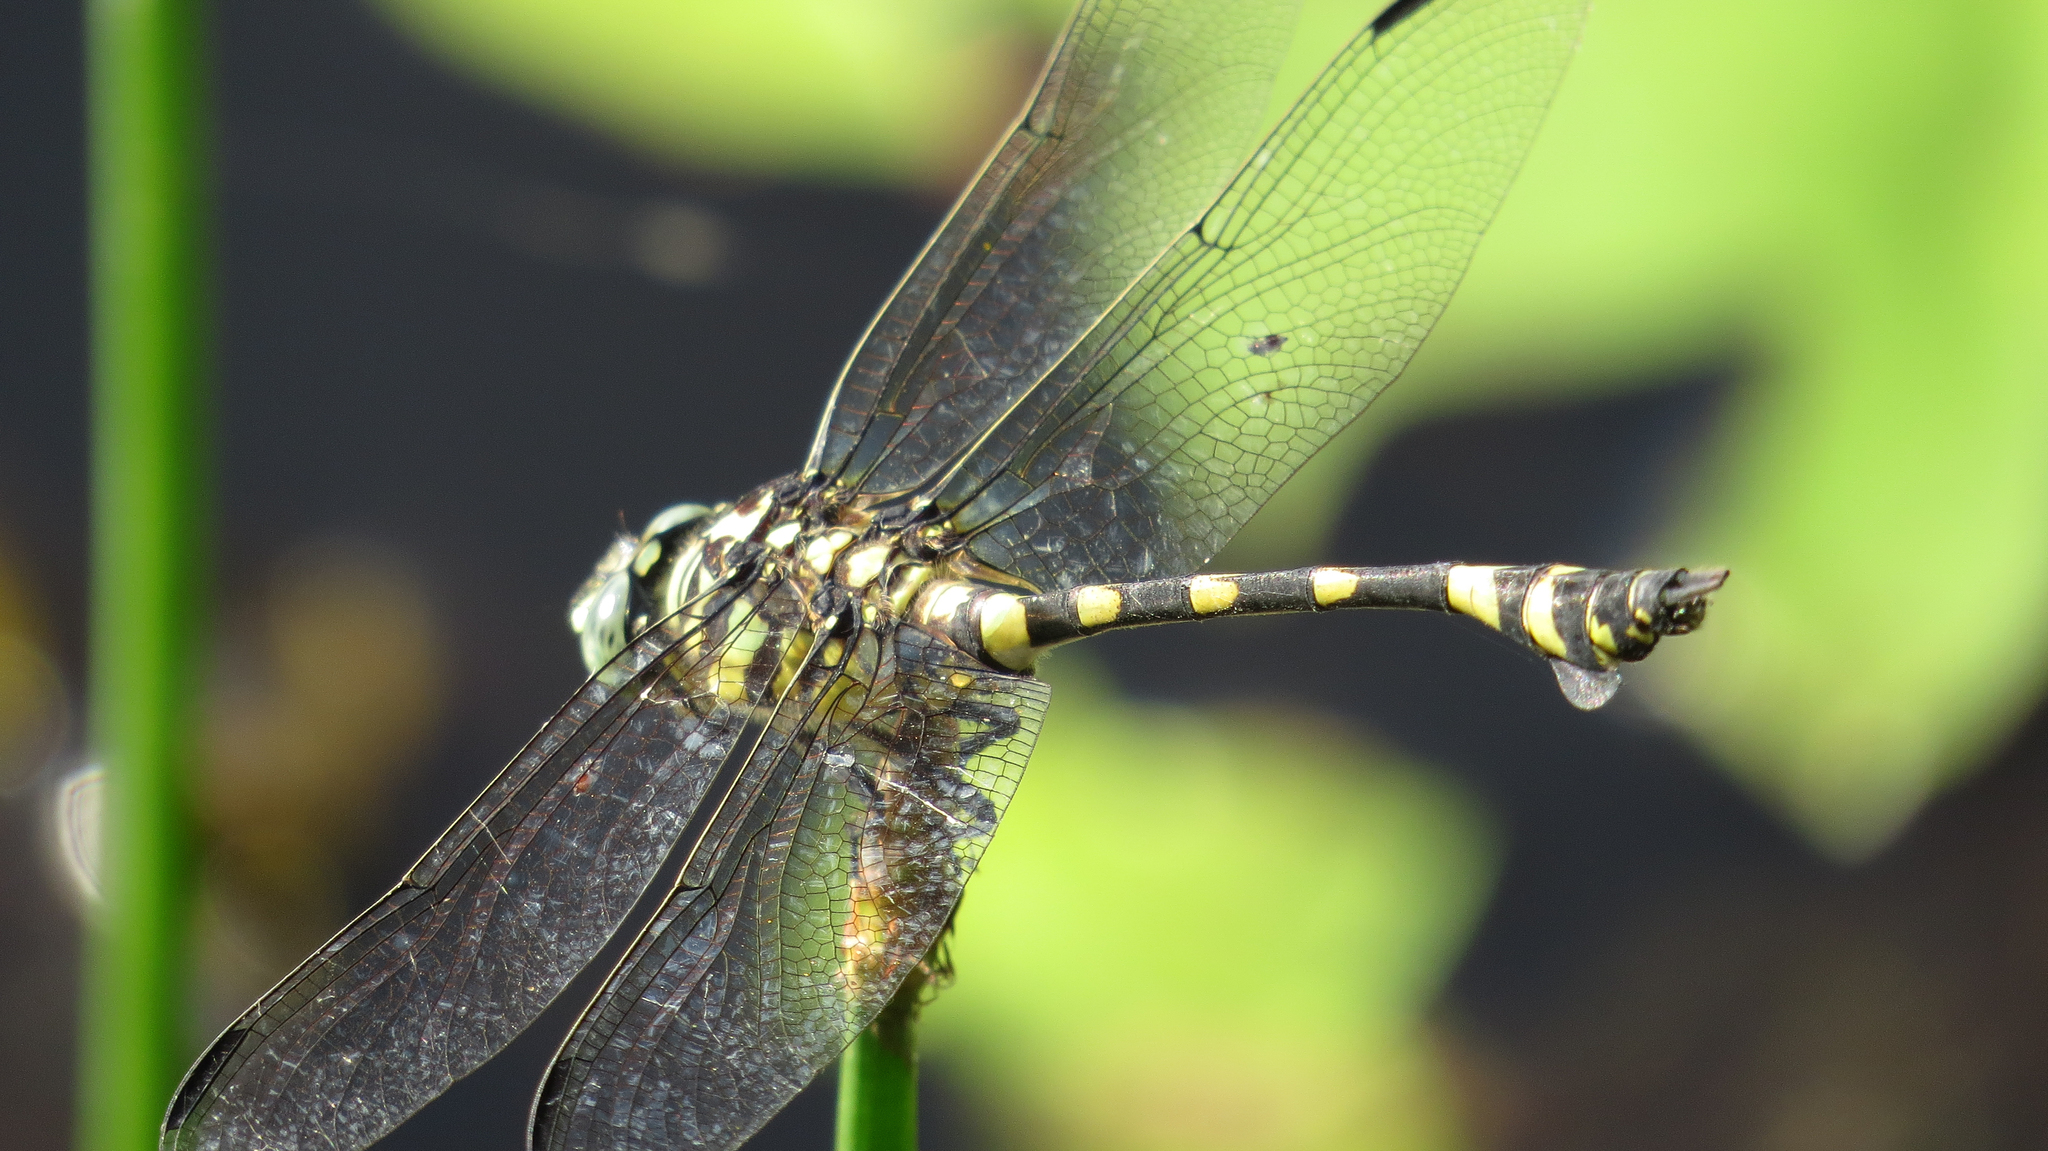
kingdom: Animalia
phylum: Arthropoda
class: Insecta
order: Odonata
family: Gomphidae
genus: Ictinogomphus
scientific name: Ictinogomphus australis
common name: Australian tiger
